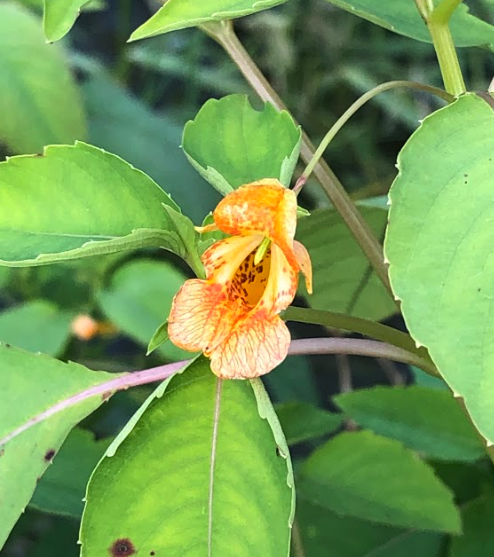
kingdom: Plantae
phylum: Tracheophyta
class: Magnoliopsida
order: Ericales
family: Balsaminaceae
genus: Impatiens
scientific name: Impatiens capensis
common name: Orange balsam
